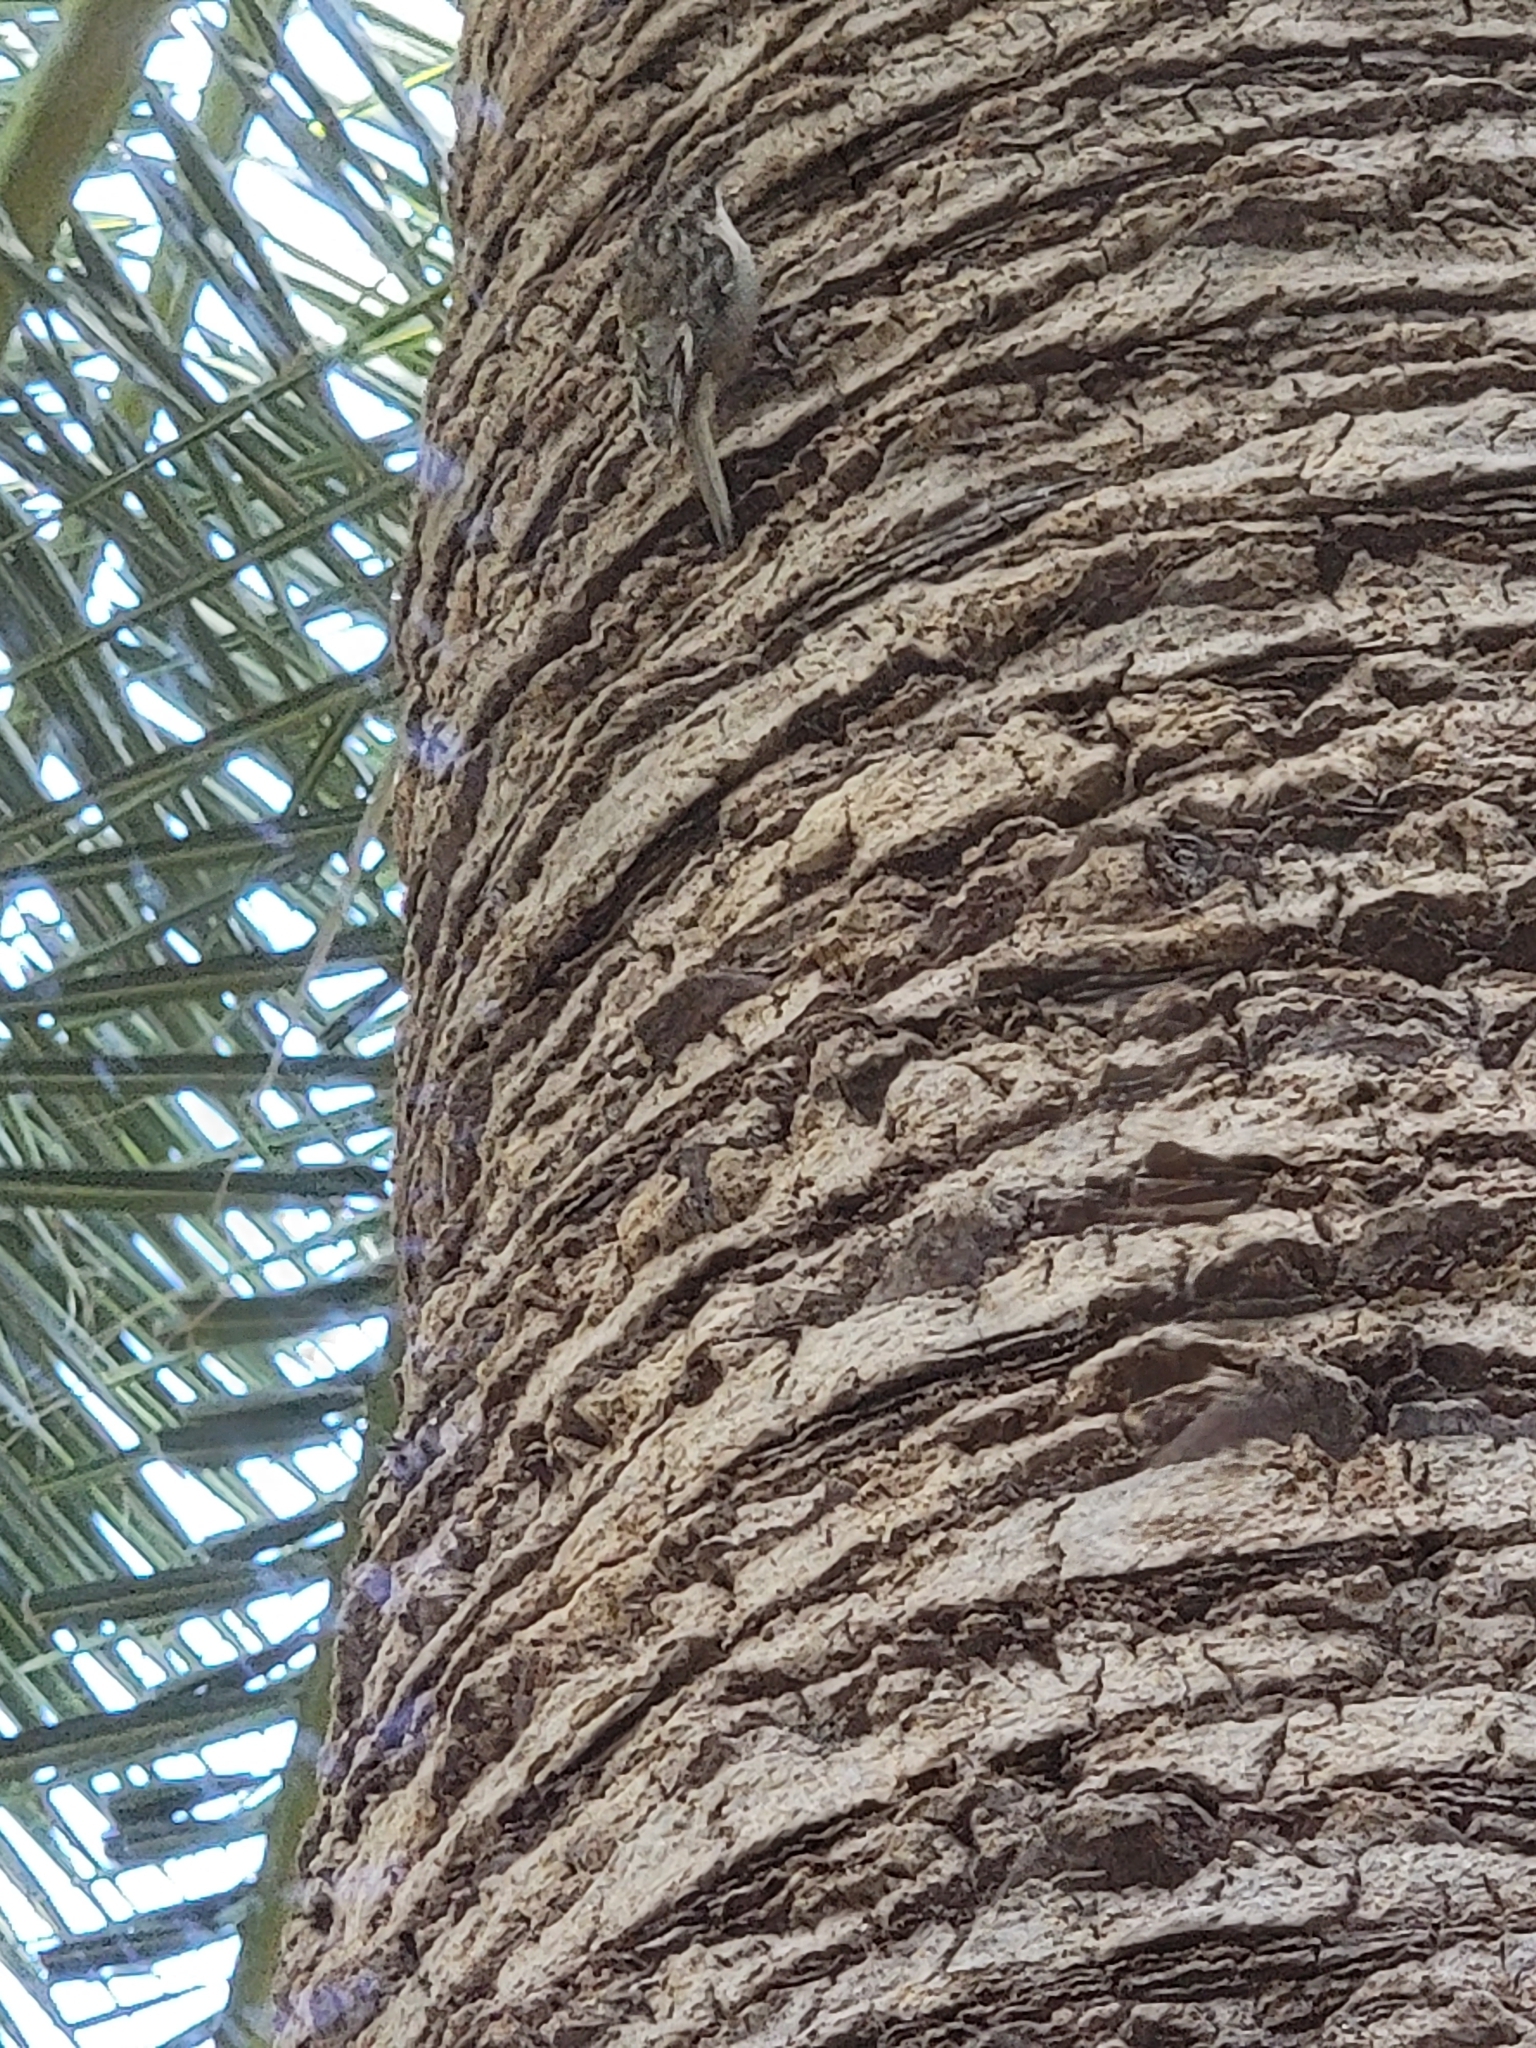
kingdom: Animalia
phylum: Chordata
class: Aves
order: Passeriformes
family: Certhiidae
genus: Certhia
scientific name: Certhia americana
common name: Brown creeper
